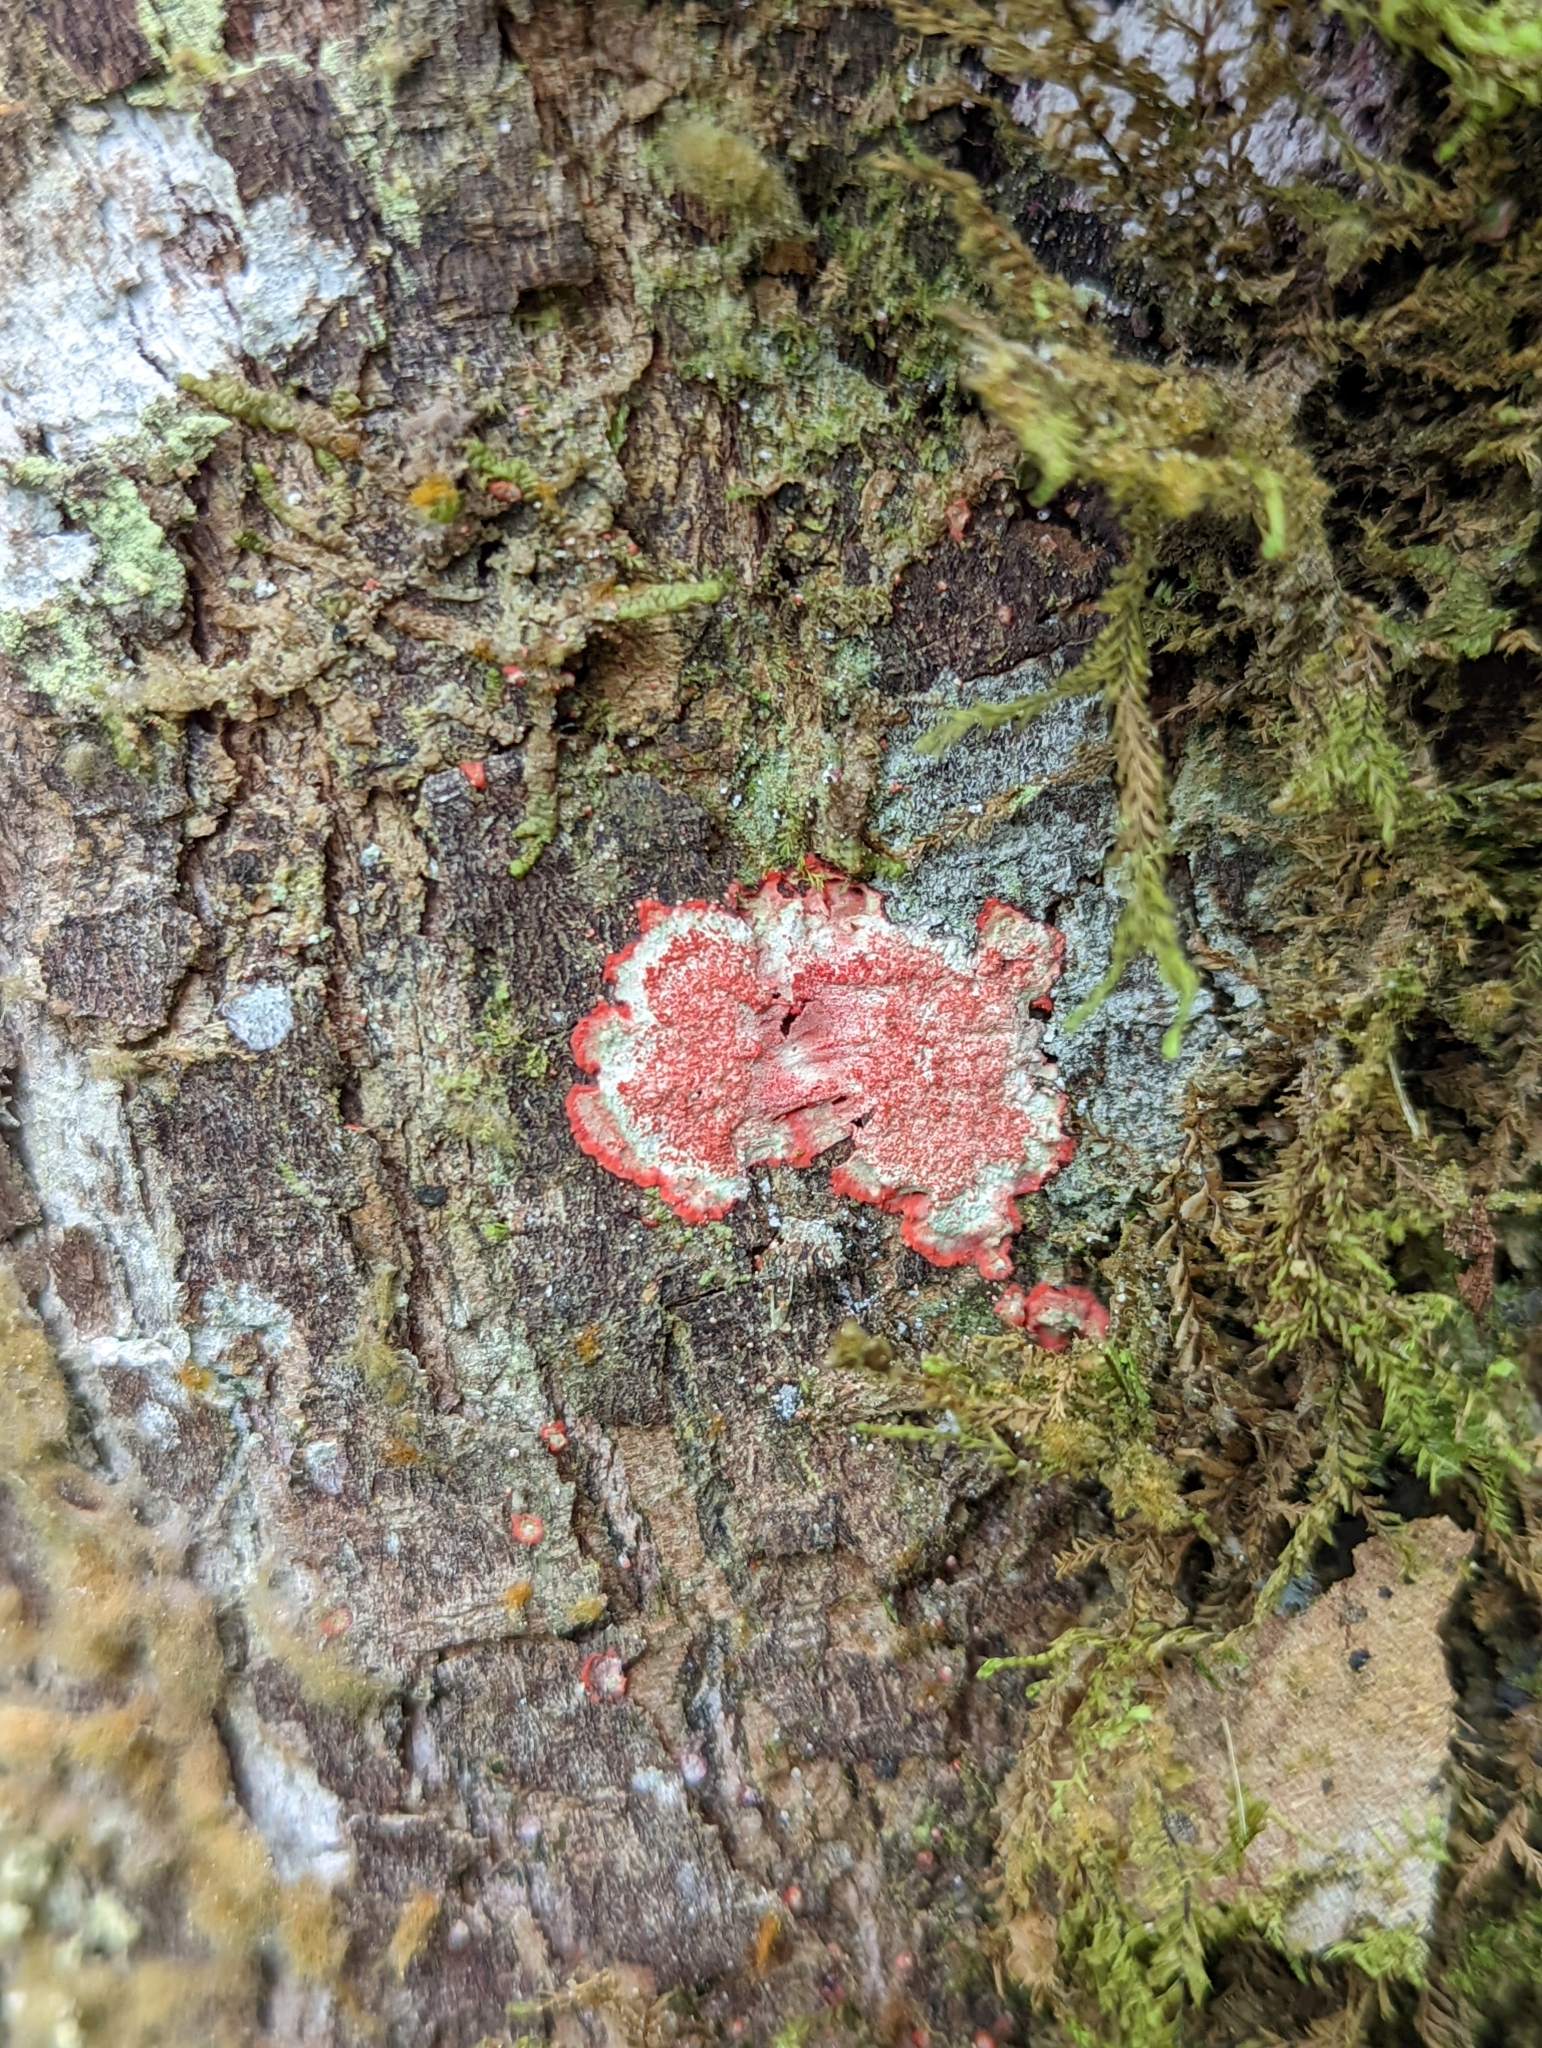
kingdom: Fungi
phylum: Ascomycota
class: Arthoniomycetes
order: Arthoniales
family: Arthoniaceae
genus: Herpothallon
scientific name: Herpothallon rubrocinctum
